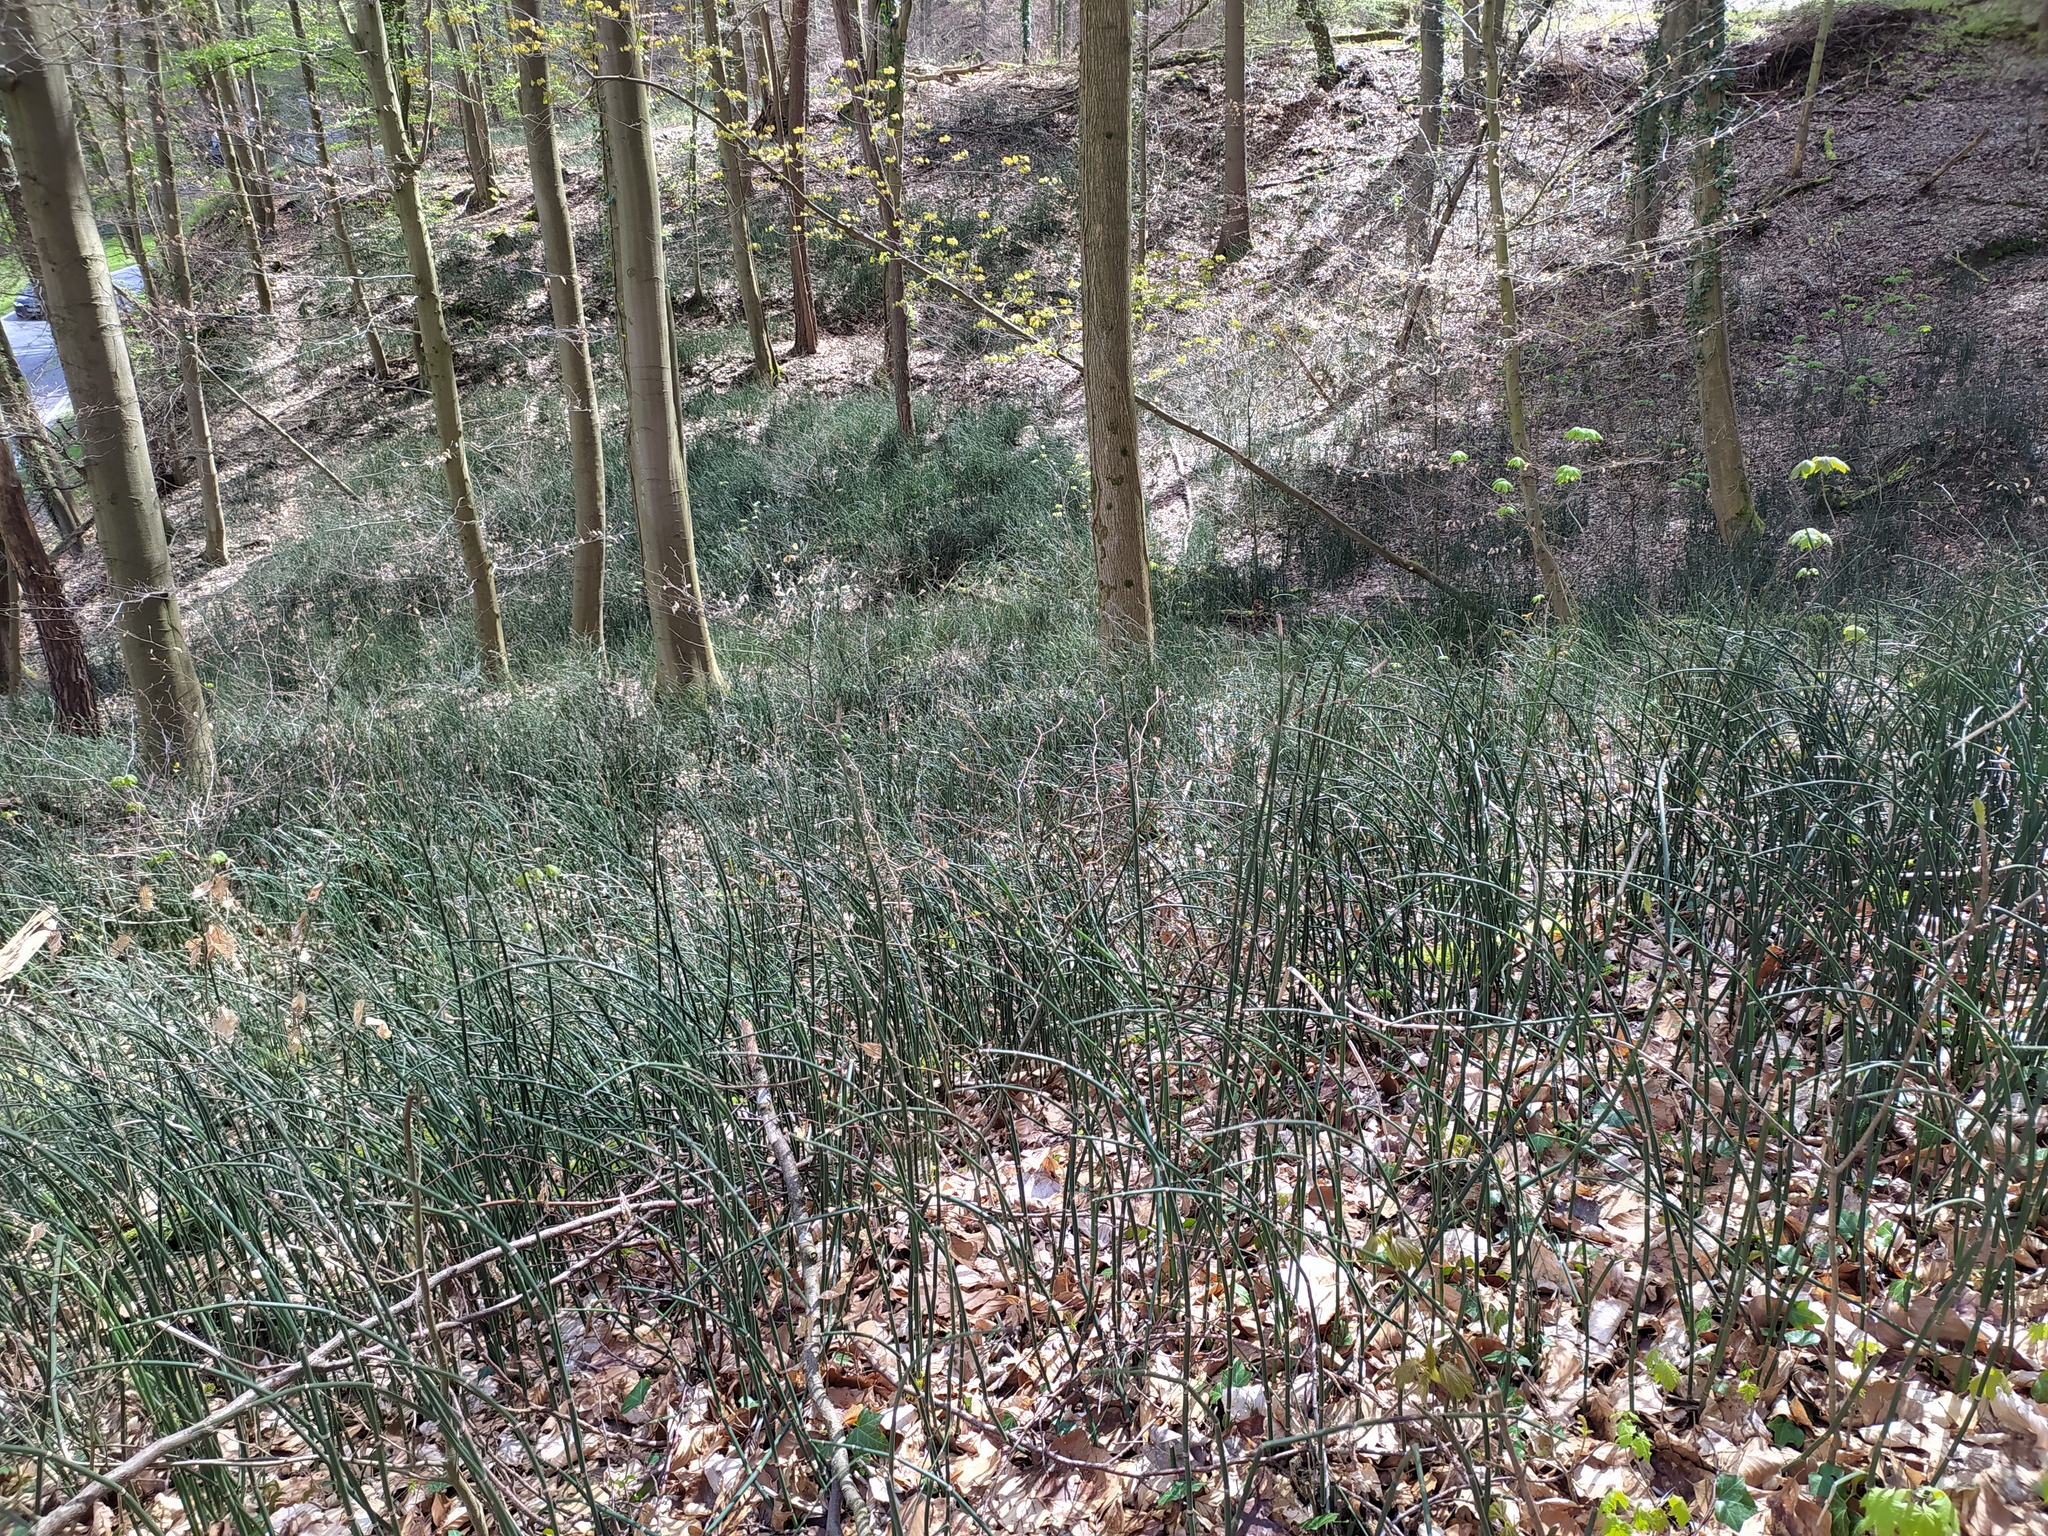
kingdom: Plantae
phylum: Tracheophyta
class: Polypodiopsida
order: Equisetales
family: Equisetaceae
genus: Equisetum
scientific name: Equisetum hyemale
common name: Rough horsetail
